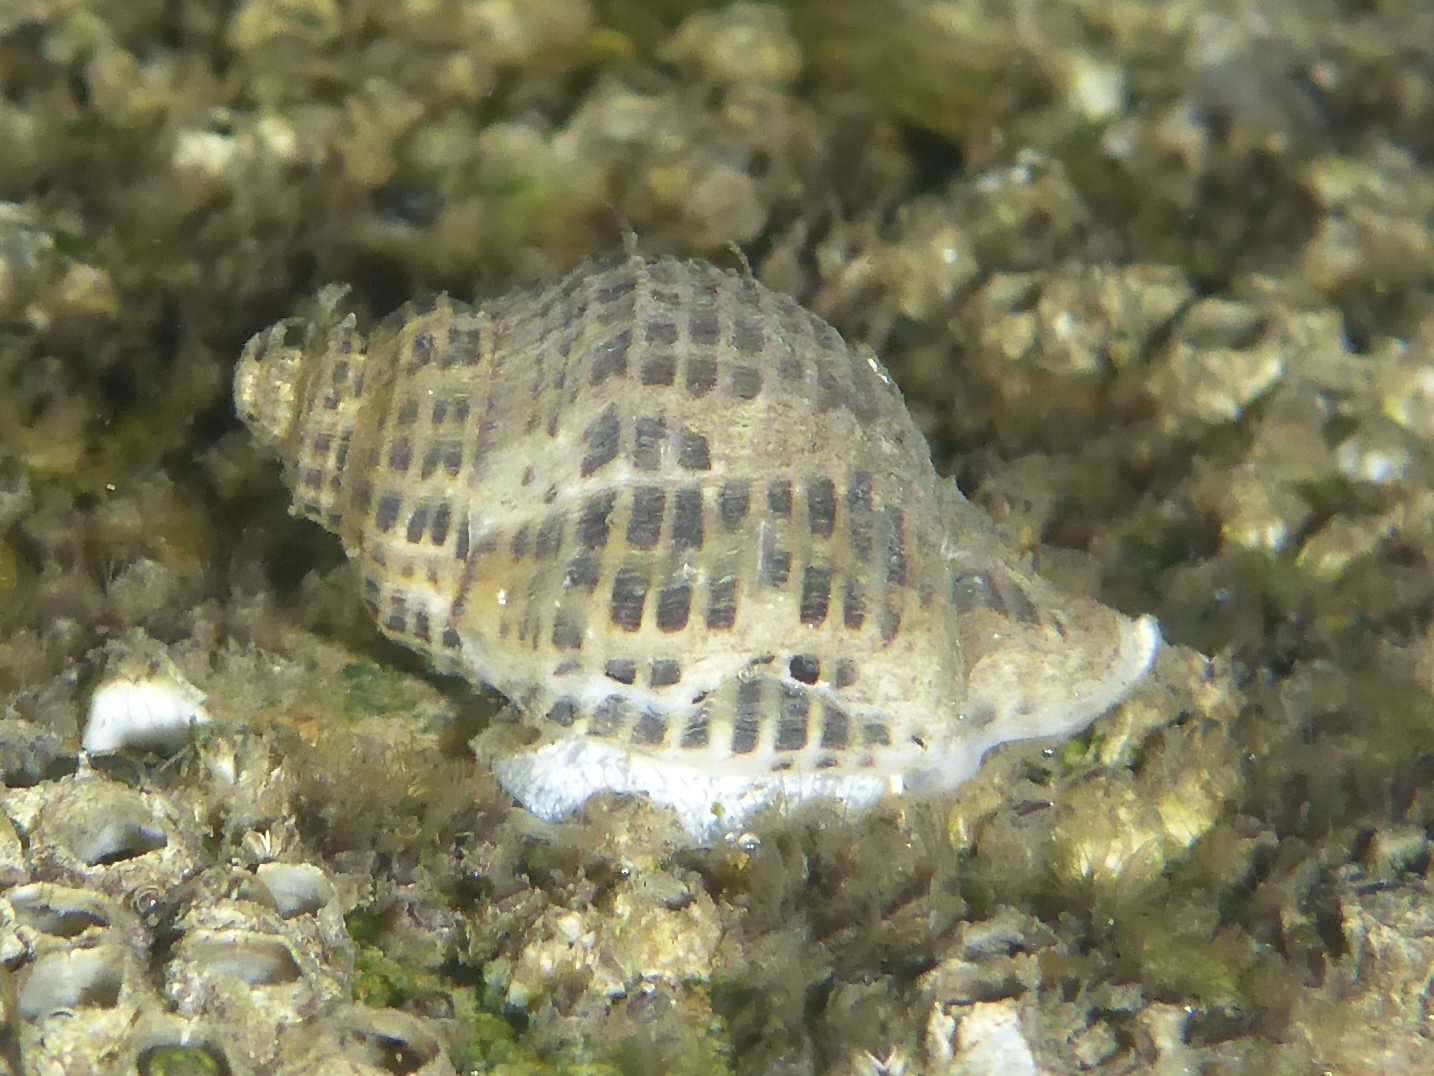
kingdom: Animalia
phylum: Mollusca
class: Gastropoda
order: Neogastropoda
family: Muricidae
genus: Acanthinucella
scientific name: Acanthinucella spirata
